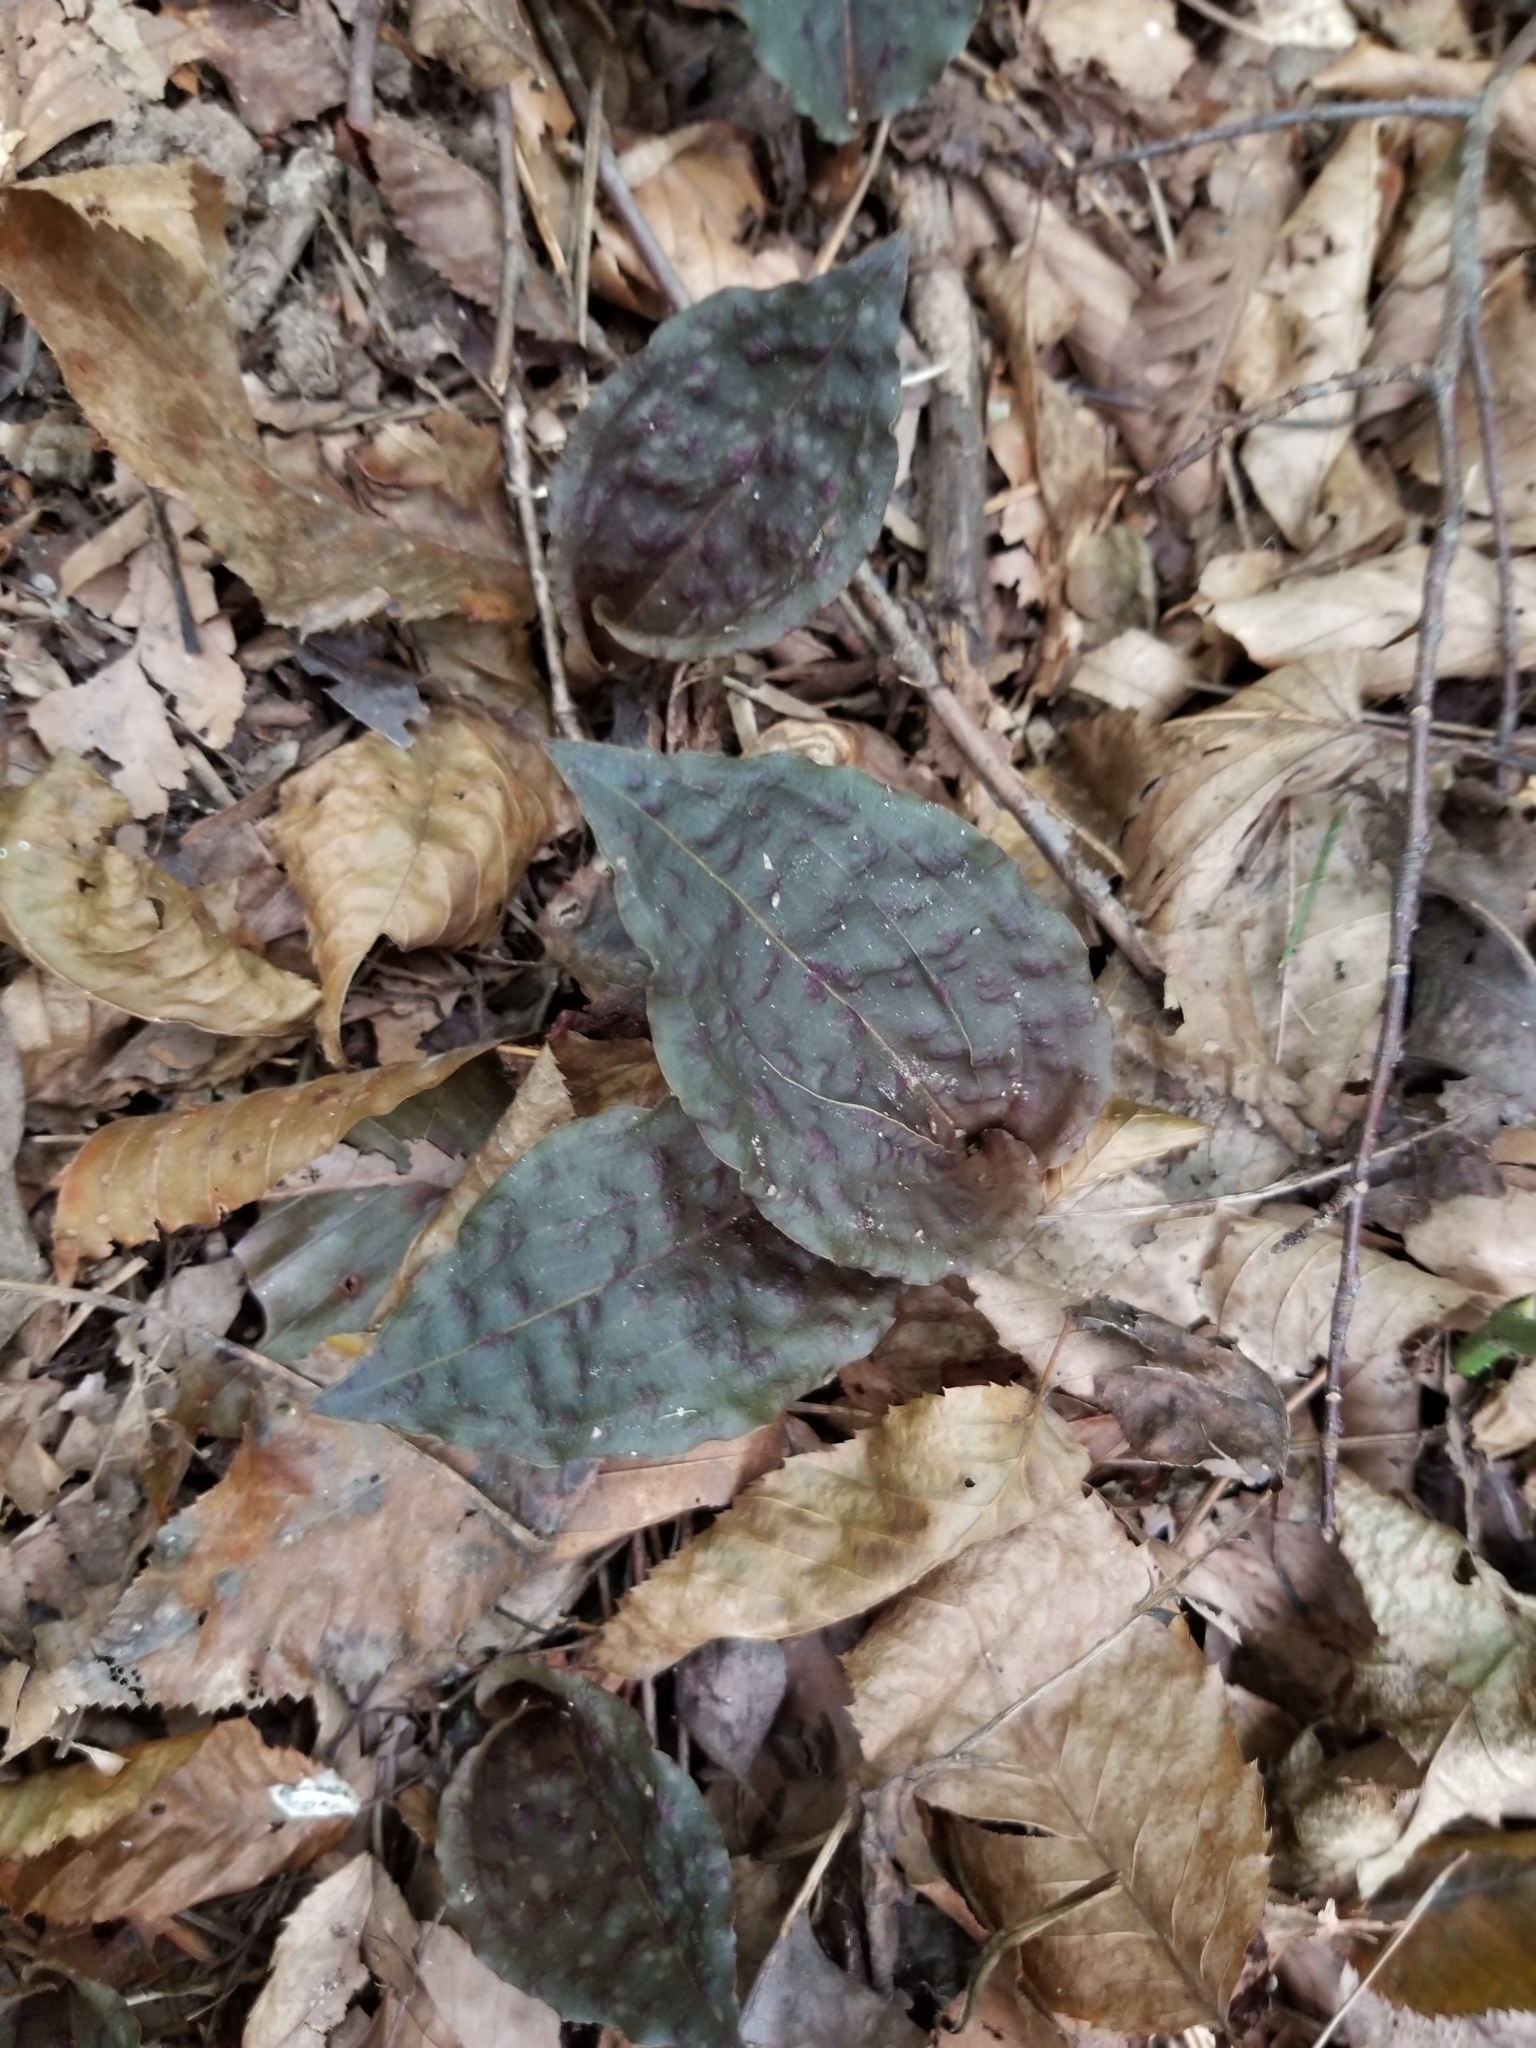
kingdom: Plantae
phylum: Tracheophyta
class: Liliopsida
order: Asparagales
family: Orchidaceae
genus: Tipularia
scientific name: Tipularia discolor
